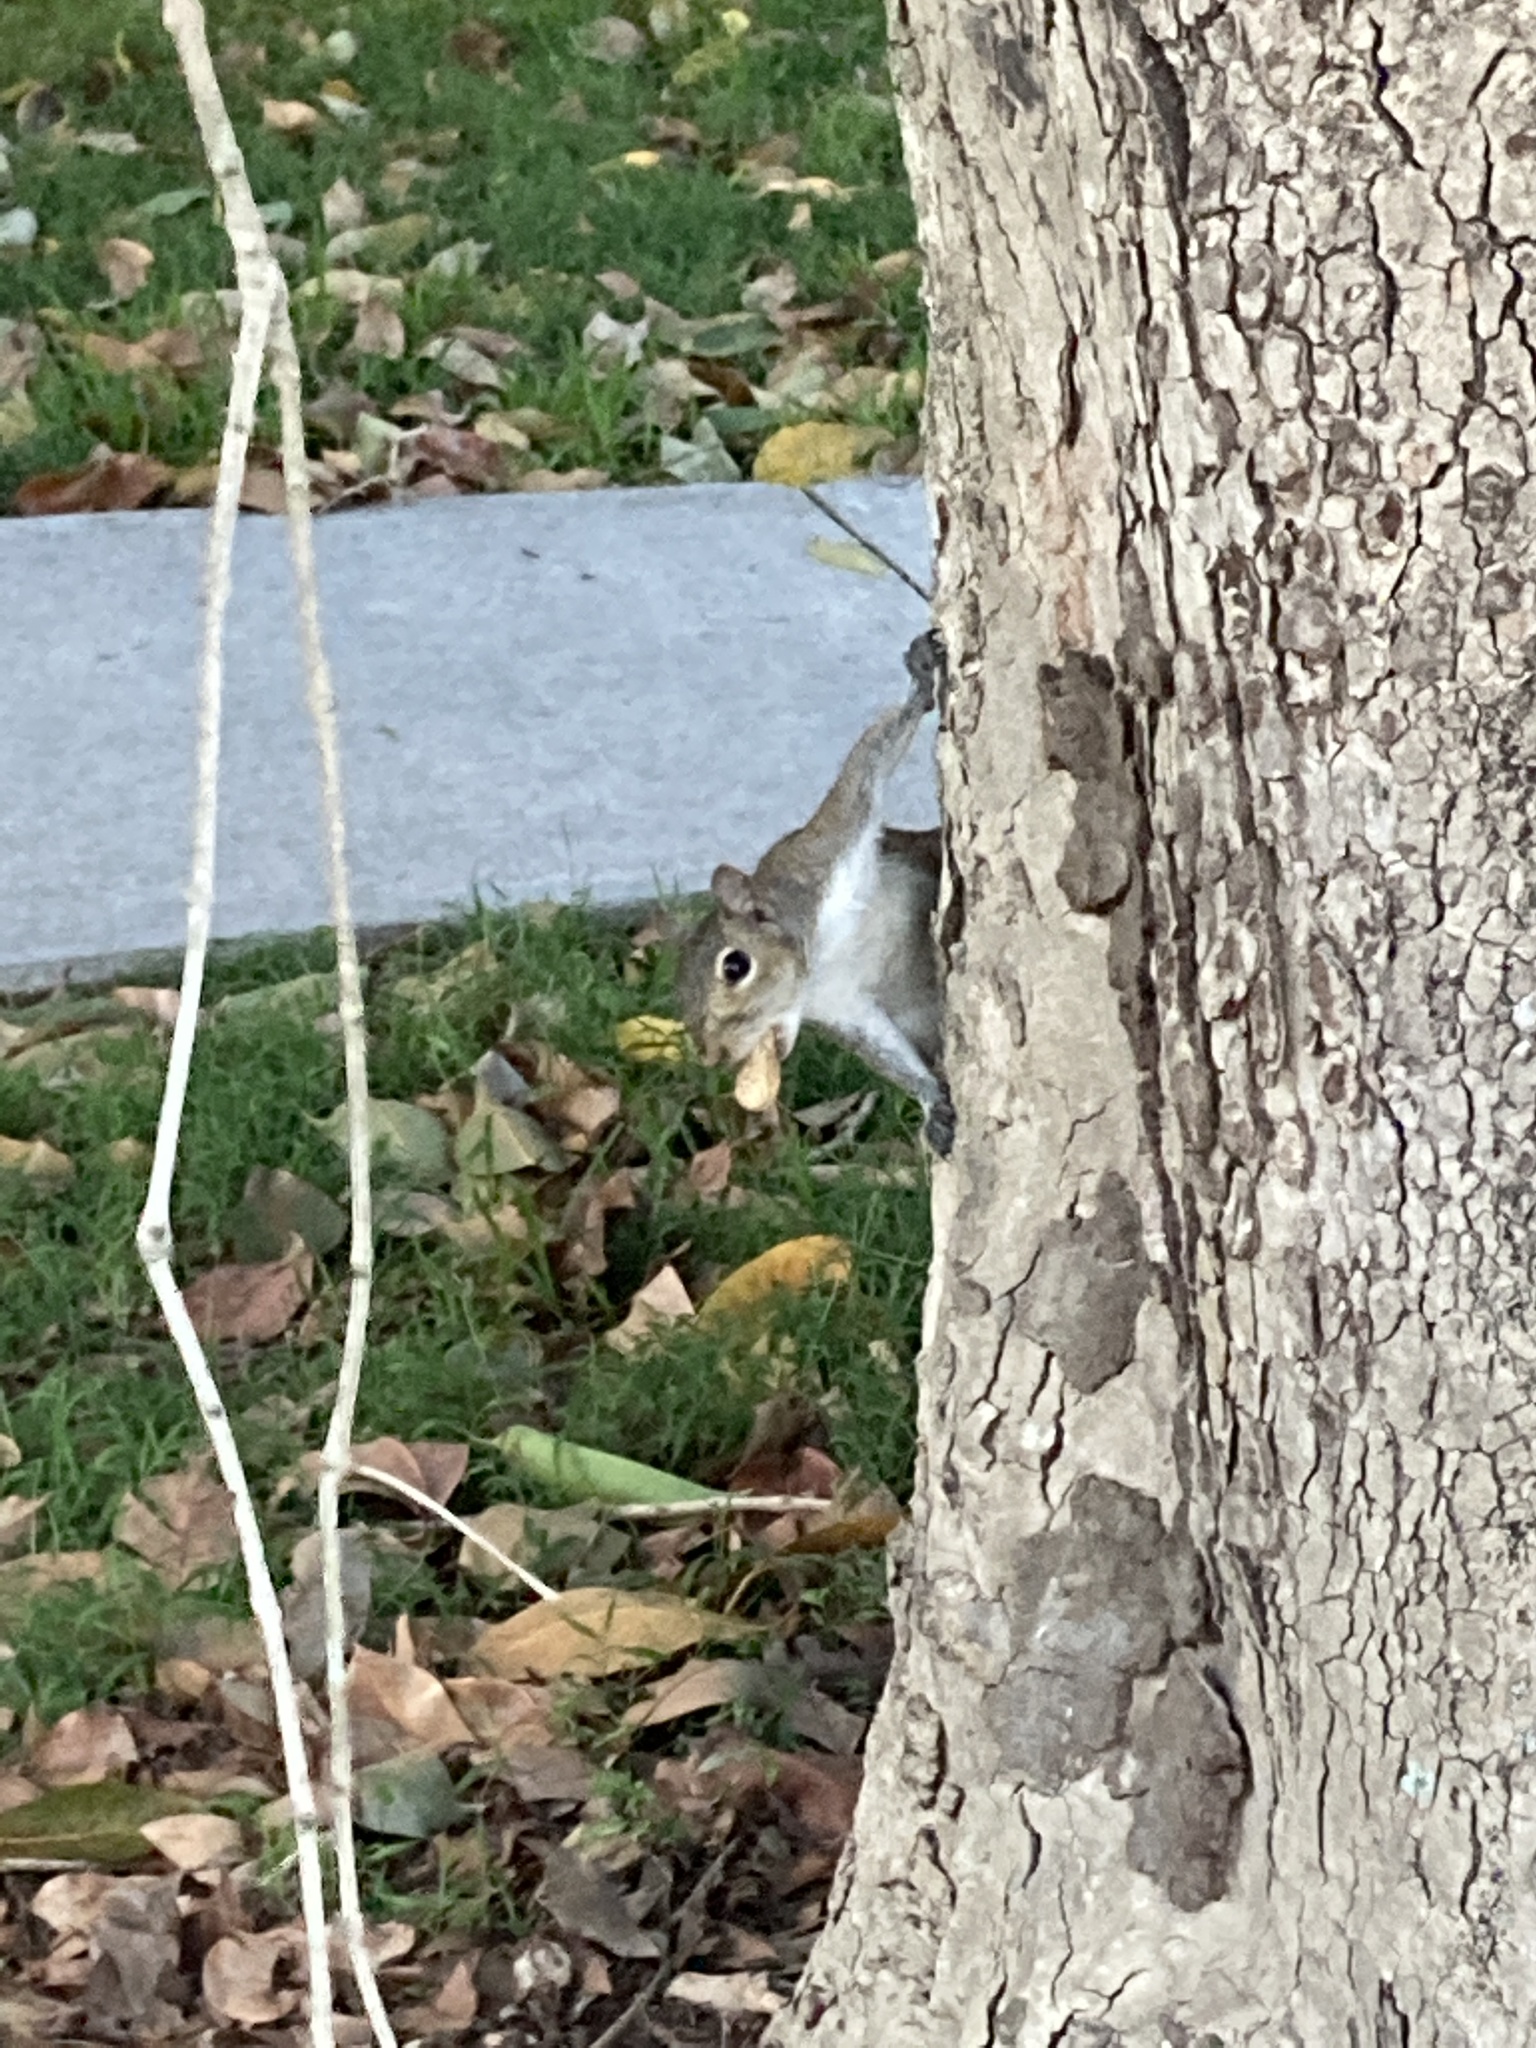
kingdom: Animalia
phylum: Chordata
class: Mammalia
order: Rodentia
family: Sciuridae
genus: Sciurus
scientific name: Sciurus carolinensis
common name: Eastern gray squirrel
